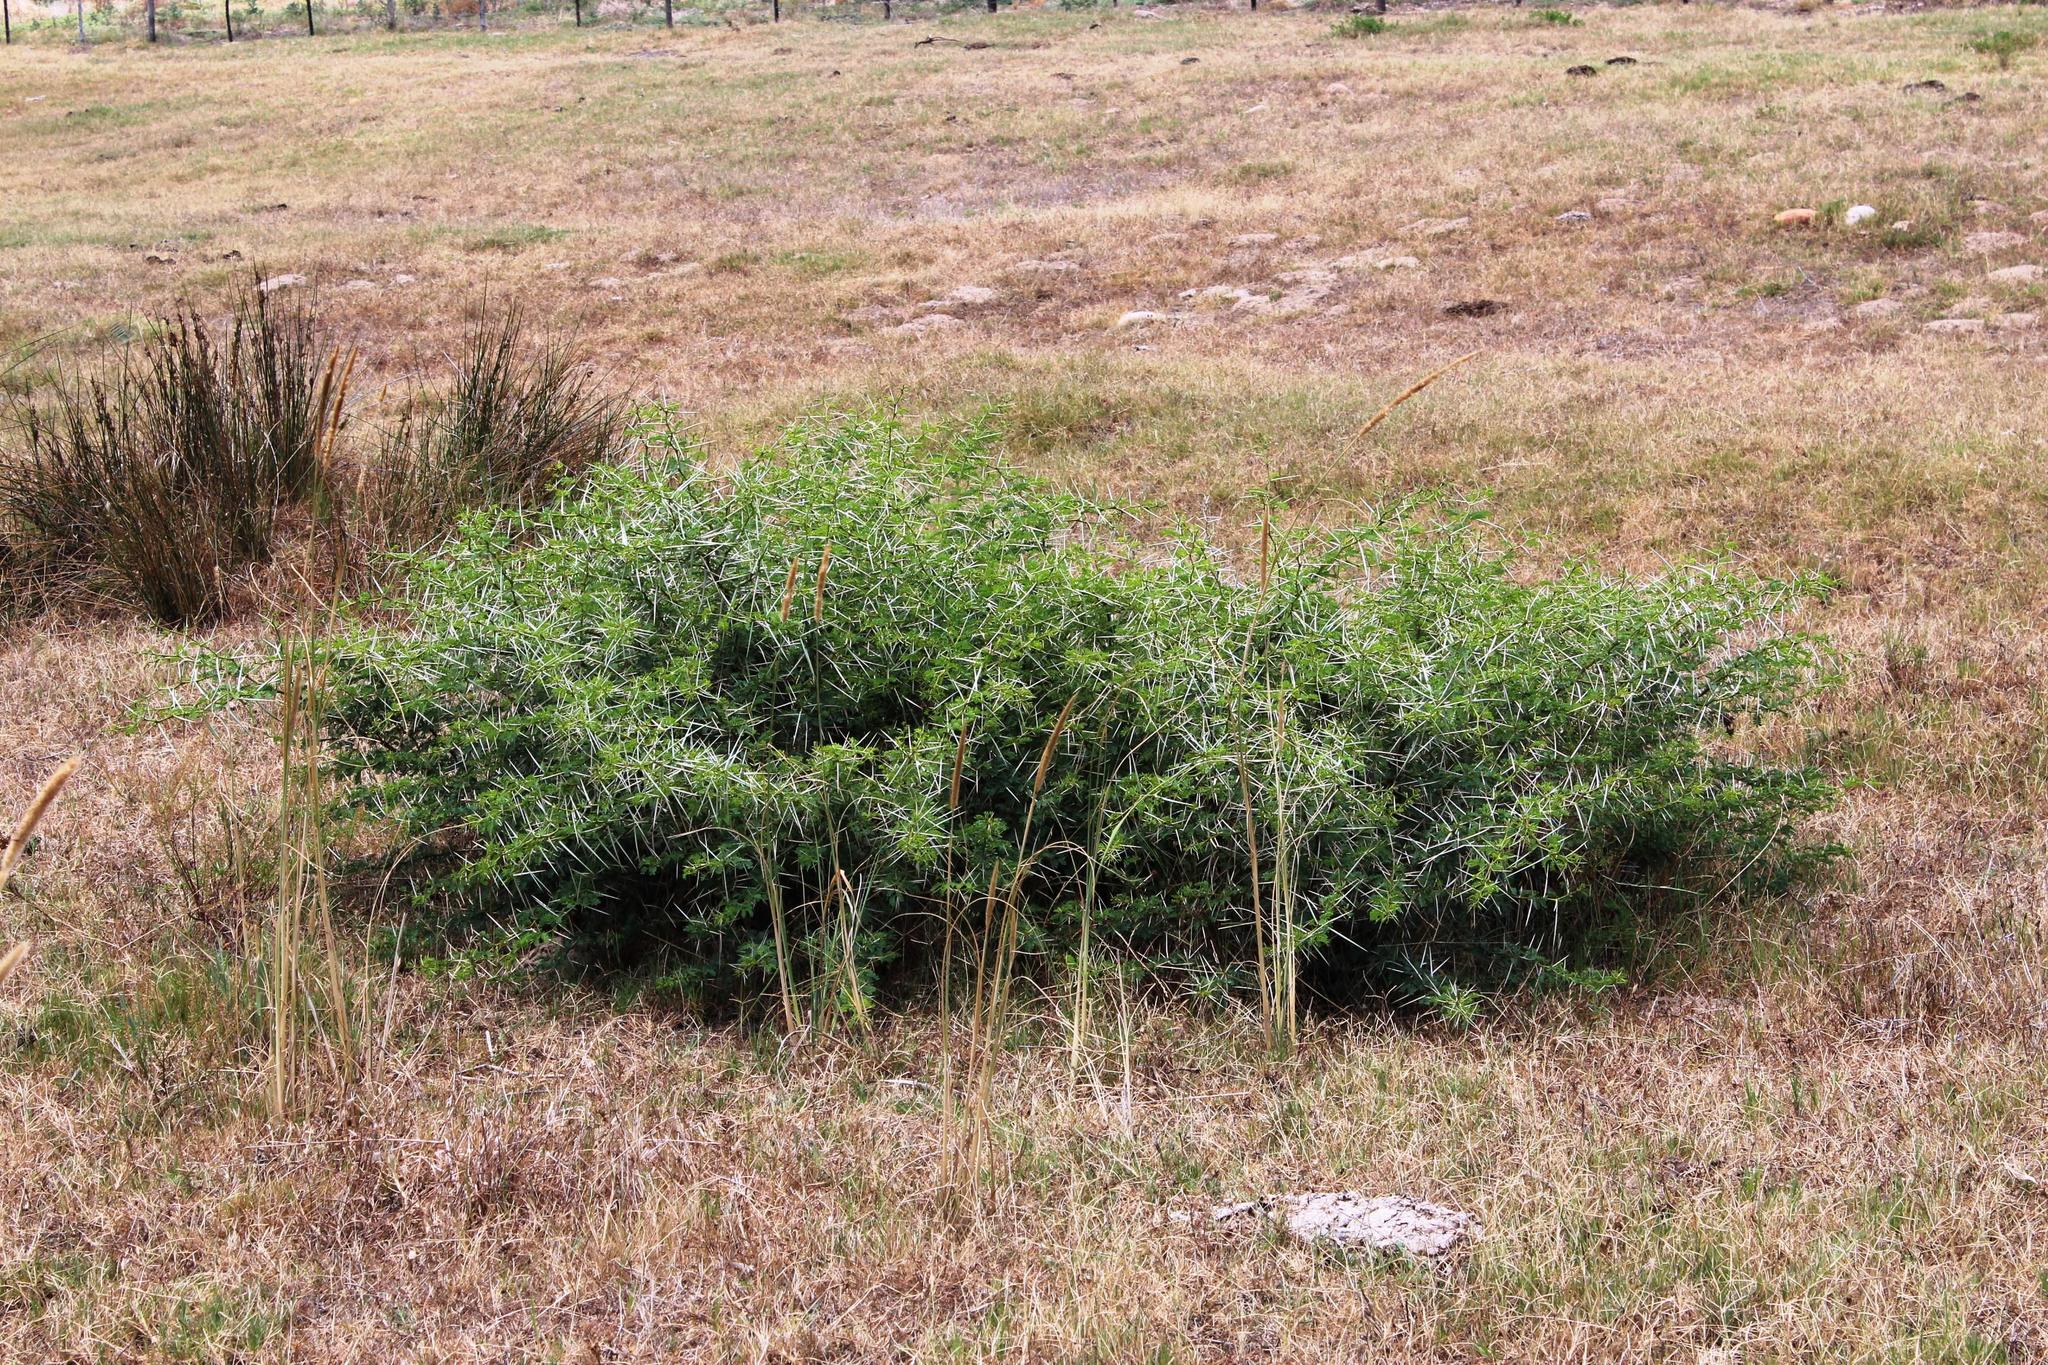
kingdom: Plantae
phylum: Tracheophyta
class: Magnoliopsida
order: Fabales
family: Fabaceae
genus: Vachellia
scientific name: Vachellia karroo
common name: Sweet thorn
